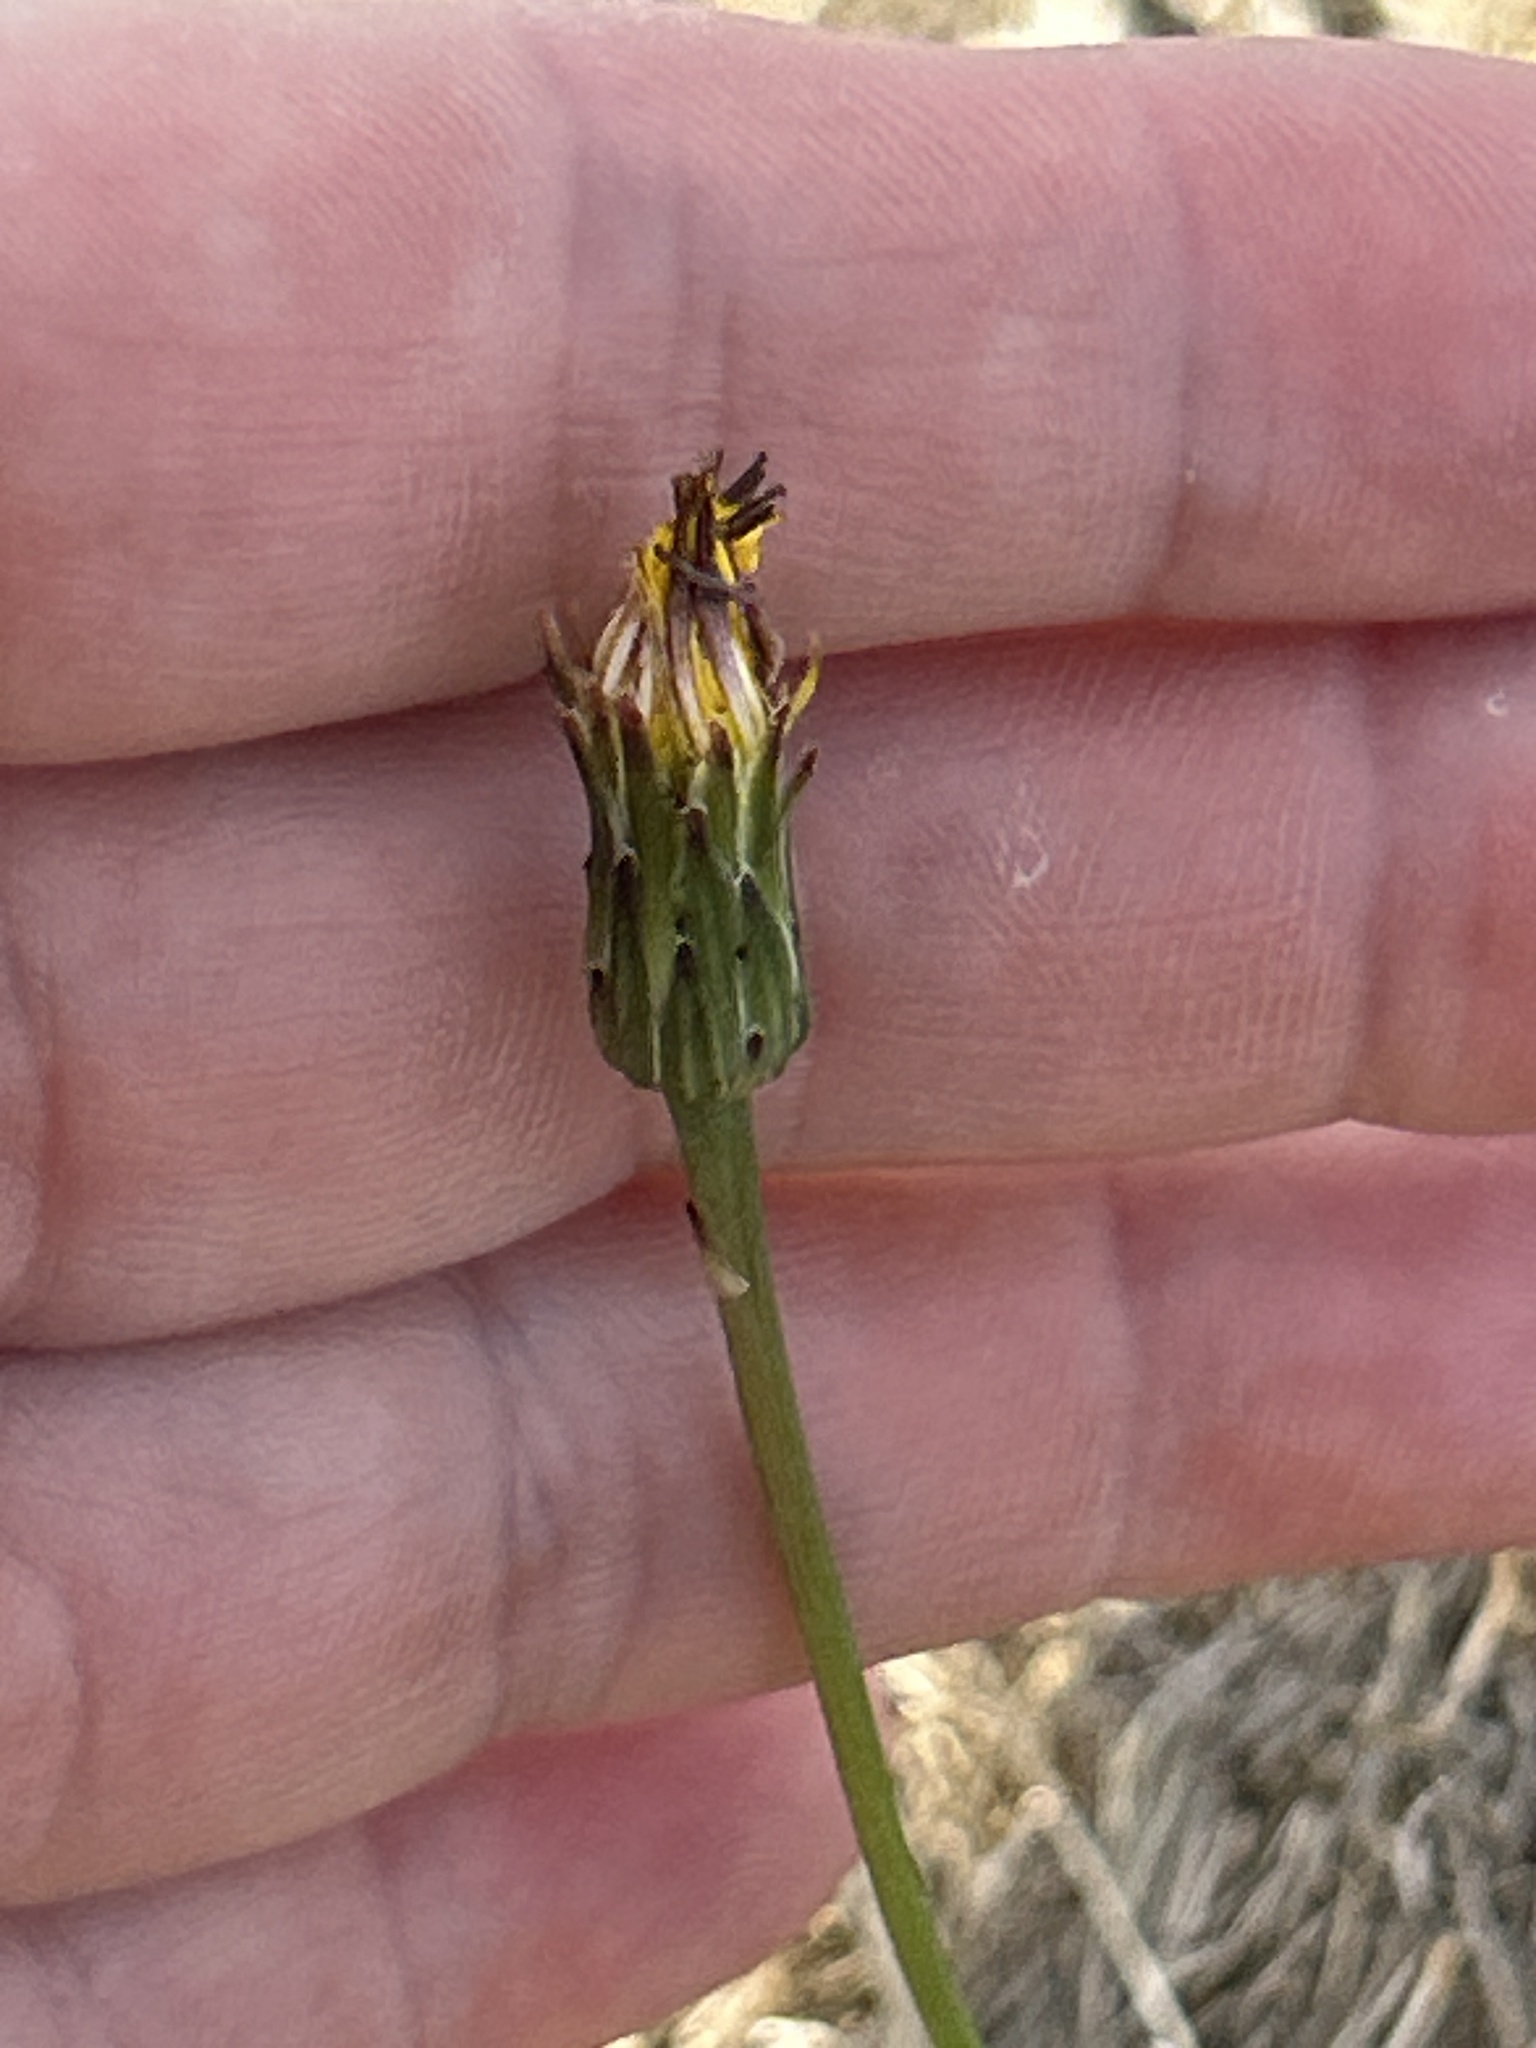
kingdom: Plantae
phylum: Tracheophyta
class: Magnoliopsida
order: Asterales
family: Asteraceae
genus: Hypochaeris
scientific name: Hypochaeris radicata
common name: Flatweed
